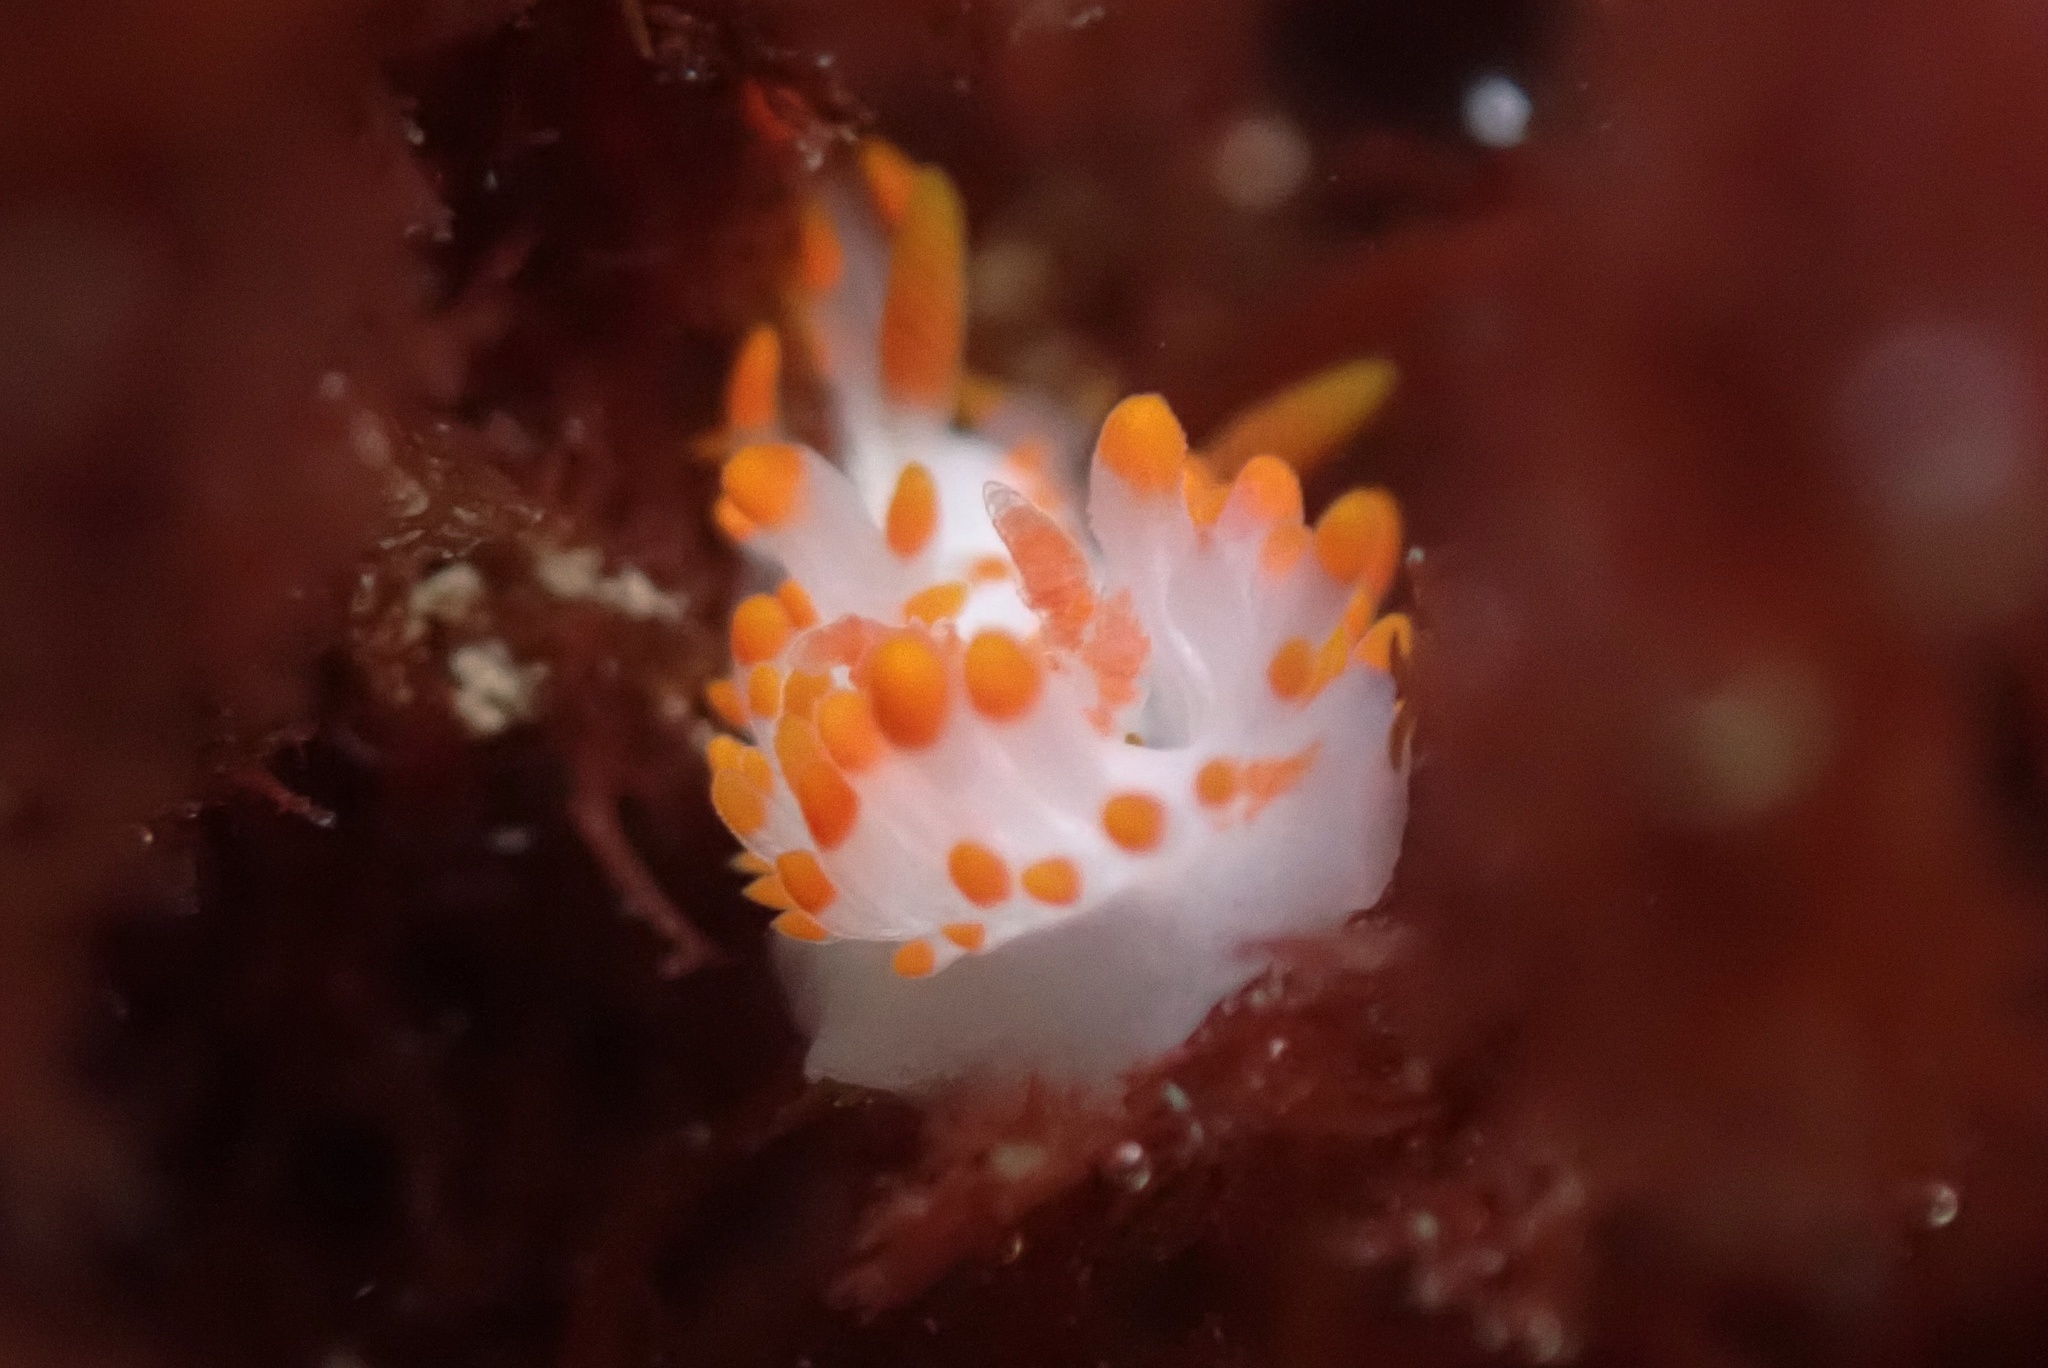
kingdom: Animalia
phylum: Mollusca
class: Gastropoda
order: Nudibranchia
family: Polyceridae
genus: Limacia
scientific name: Limacia mcdonaldi
